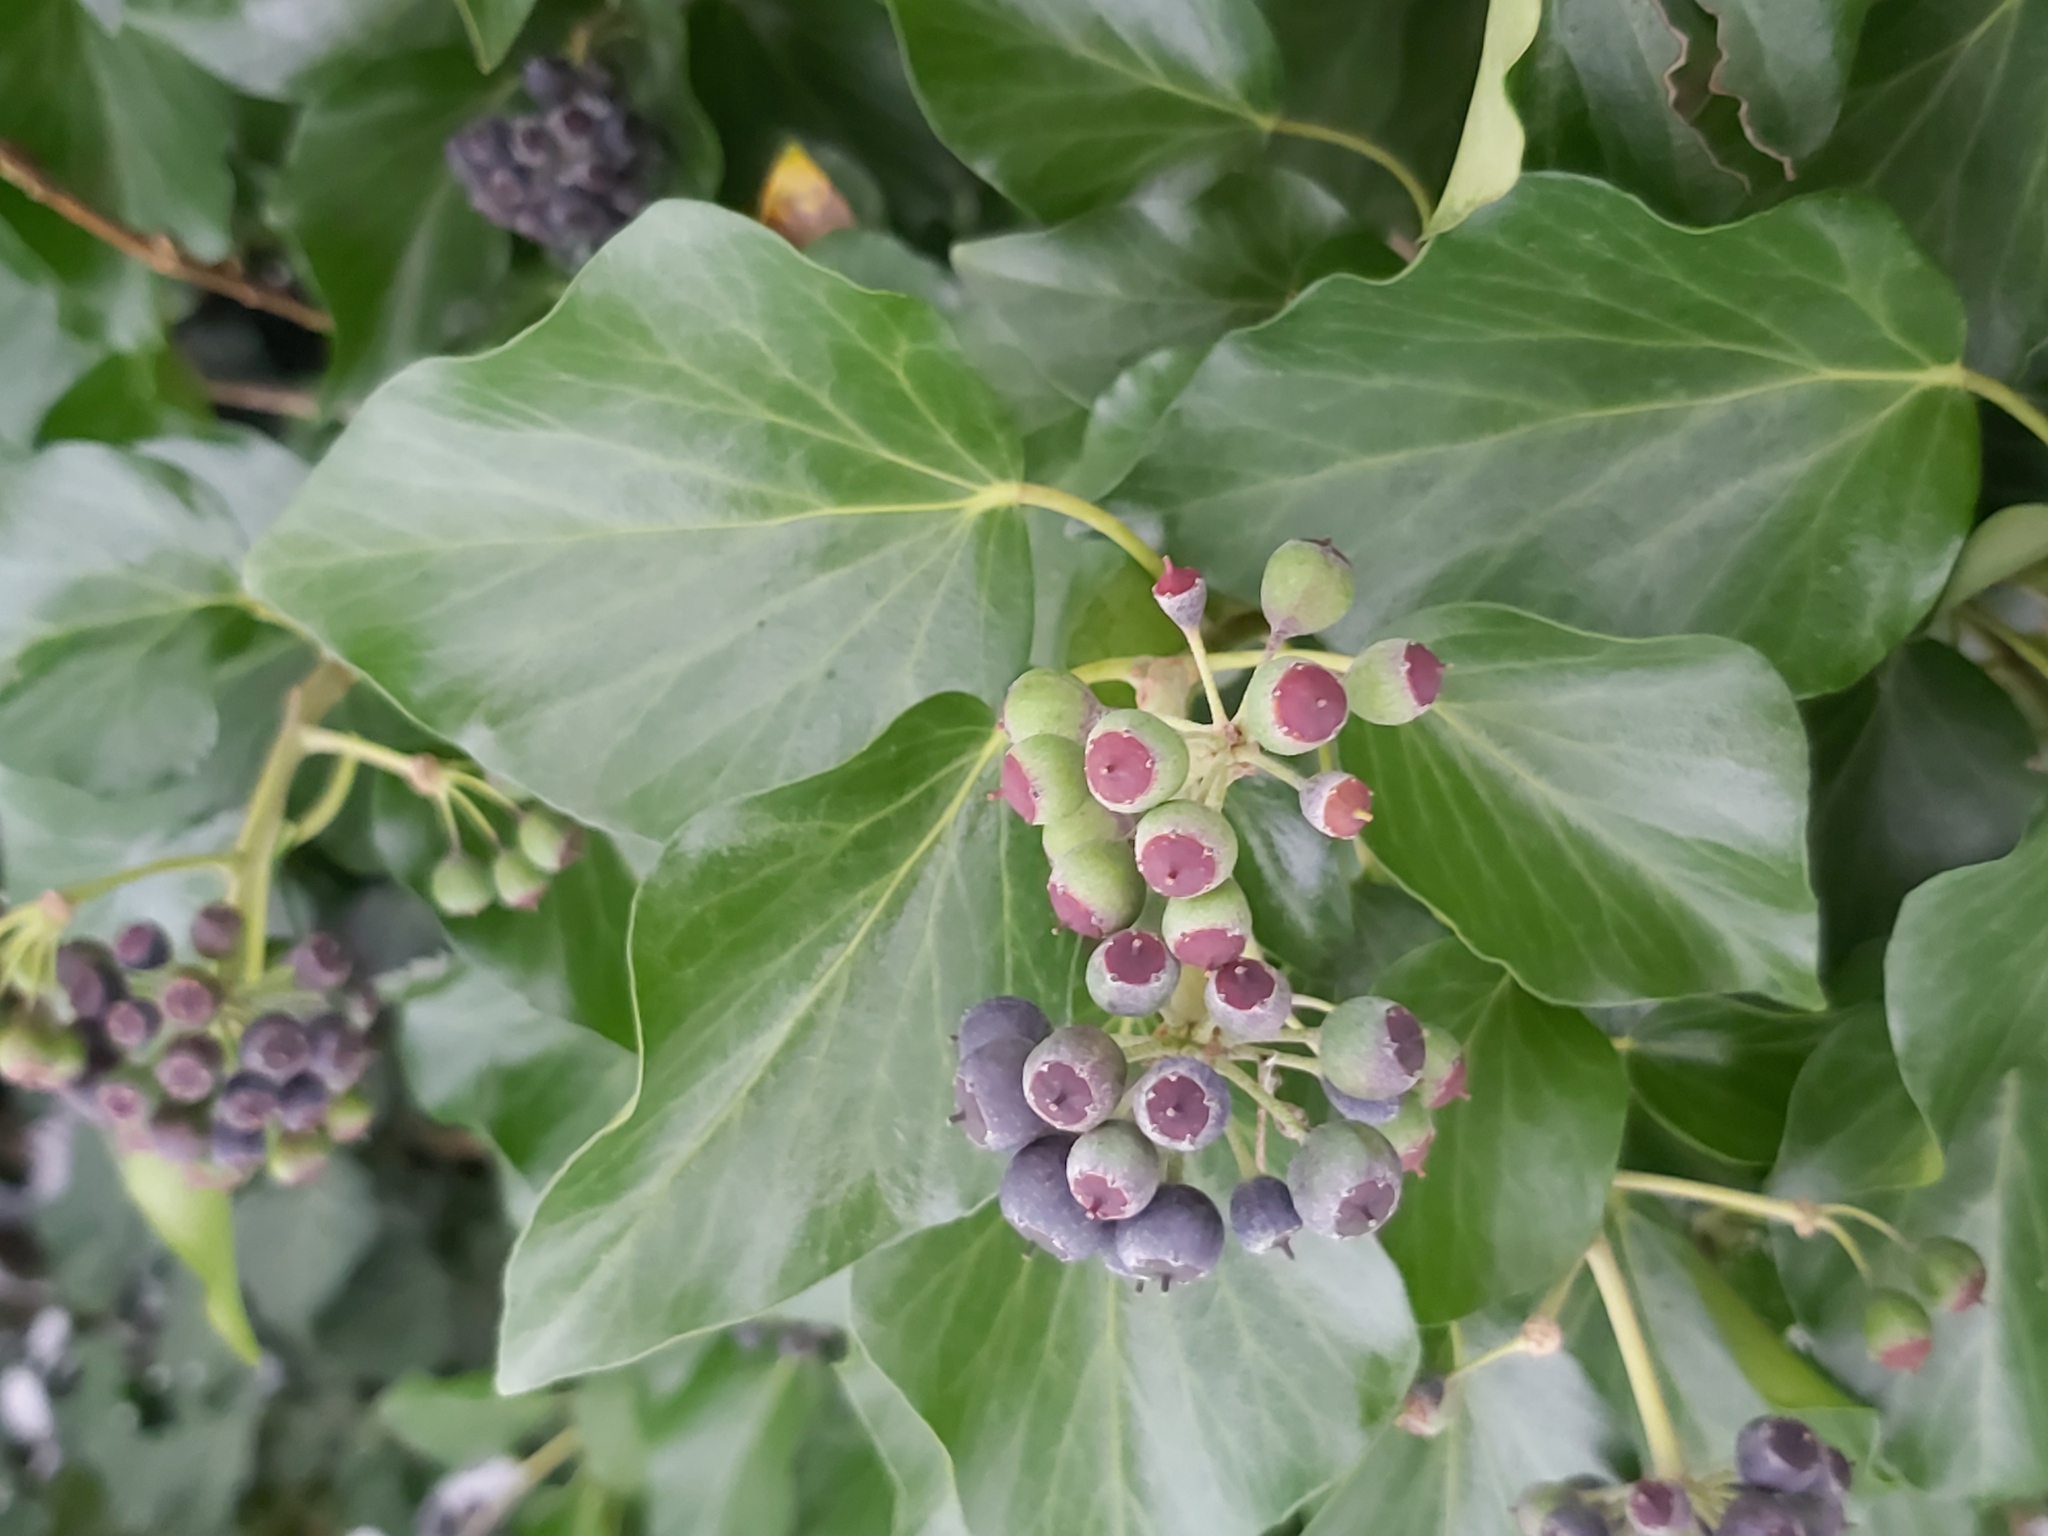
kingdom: Plantae
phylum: Tracheophyta
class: Magnoliopsida
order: Apiales
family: Araliaceae
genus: Hedera
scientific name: Hedera helix
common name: Ivy
